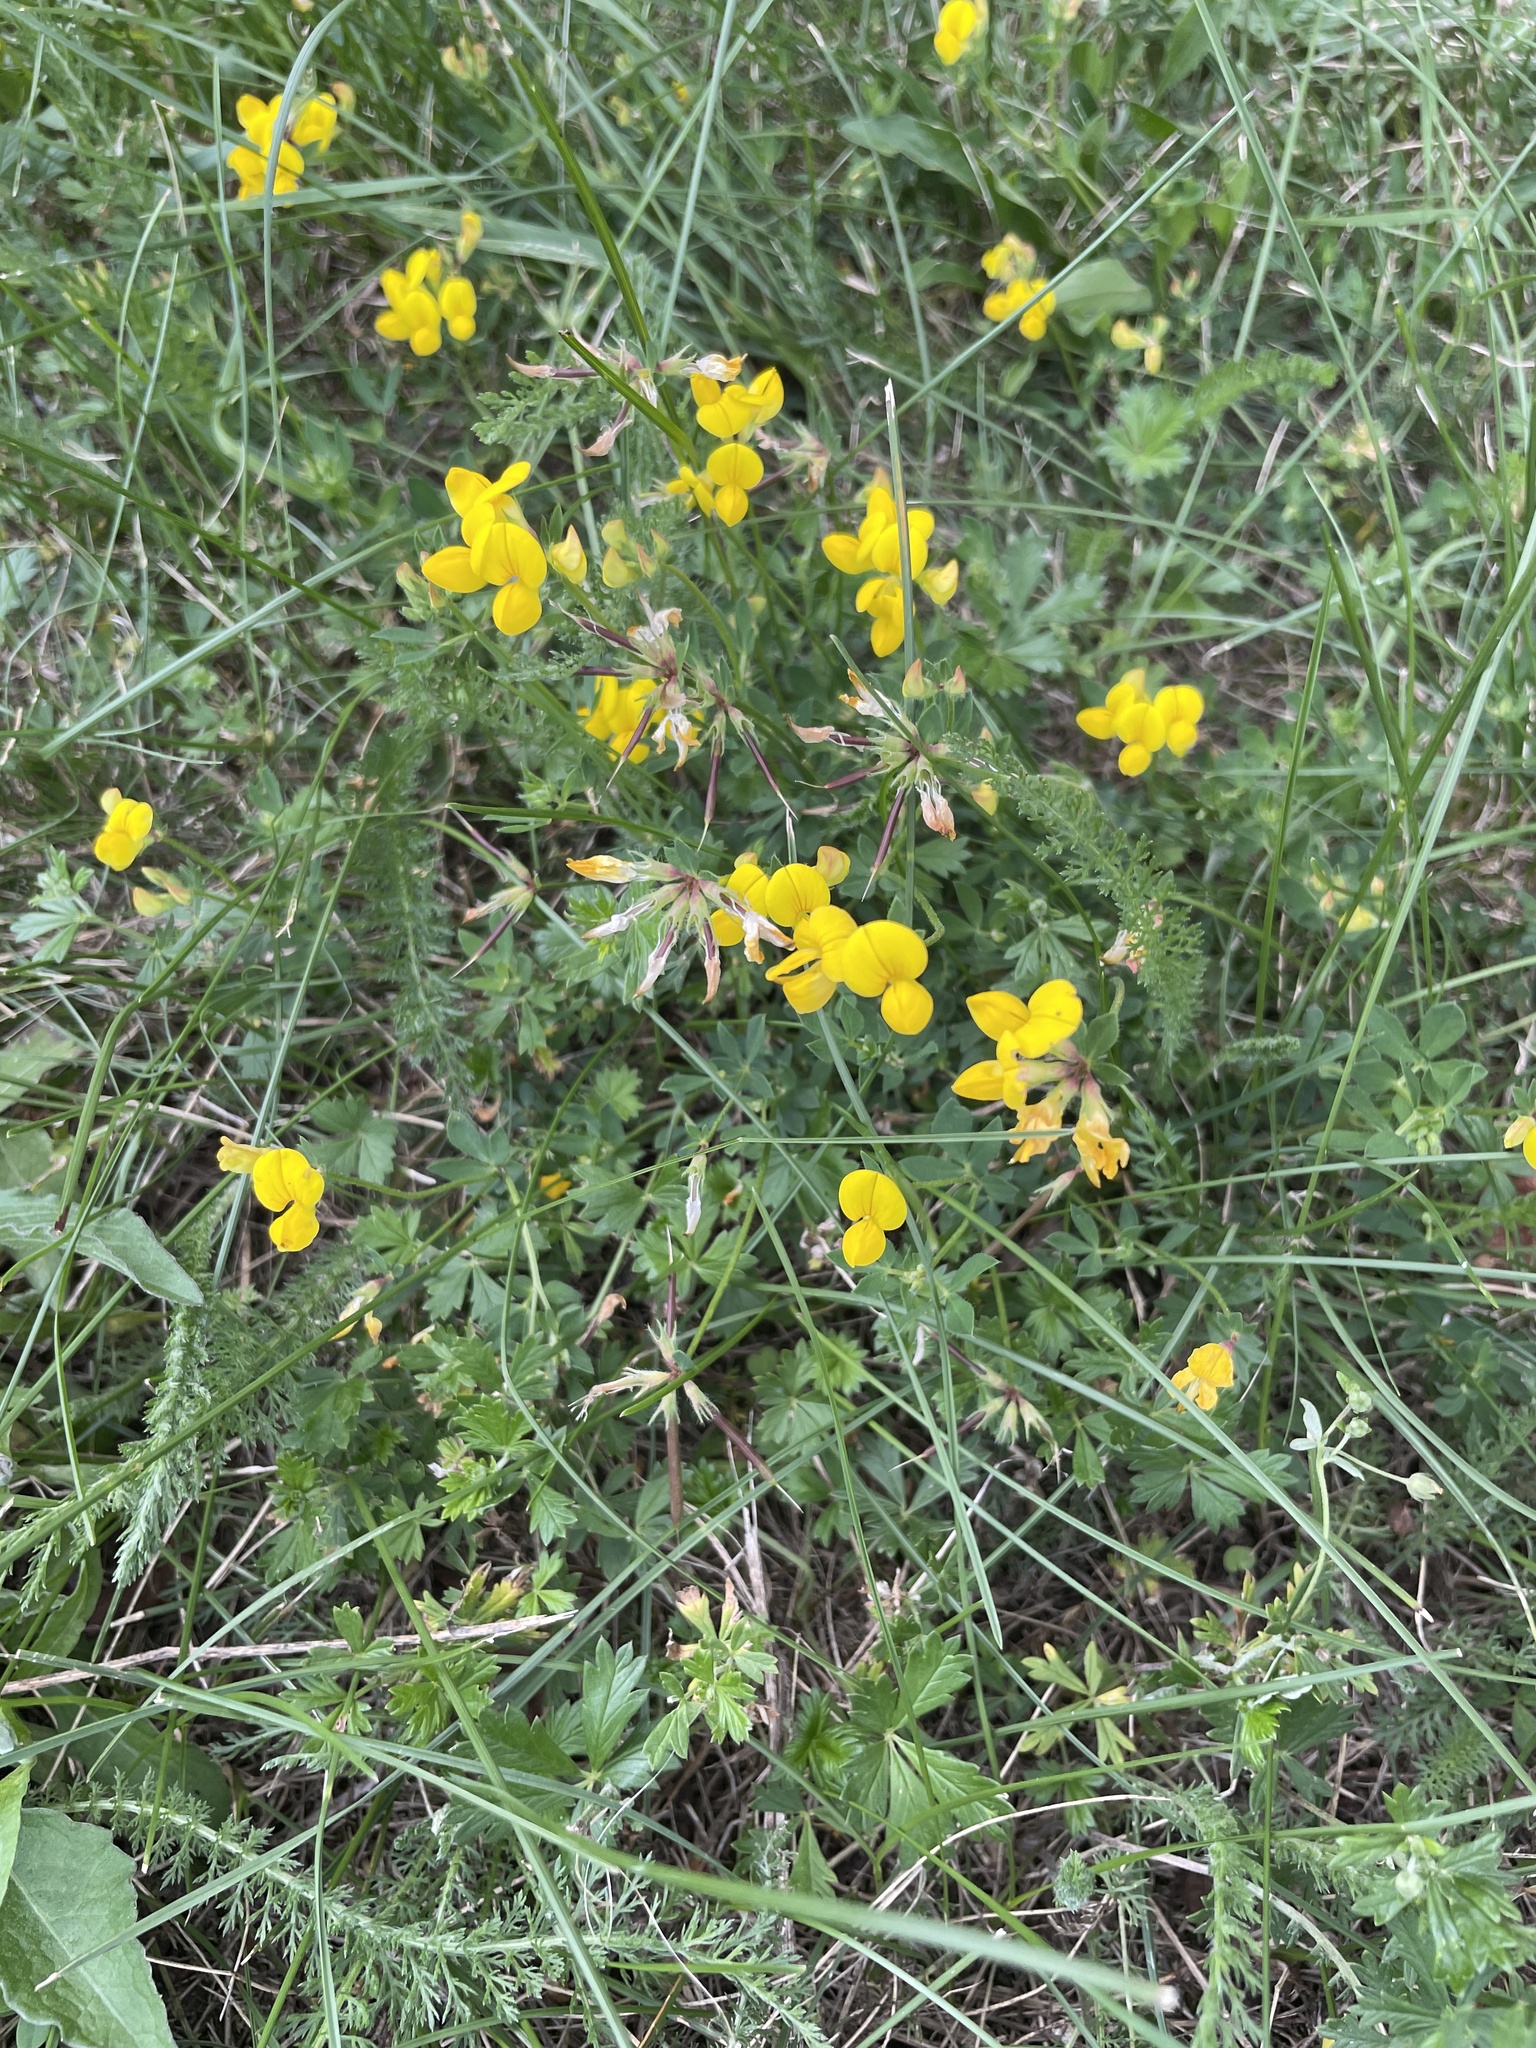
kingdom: Plantae
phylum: Tracheophyta
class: Magnoliopsida
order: Fabales
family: Fabaceae
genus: Lotus
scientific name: Lotus corniculatus
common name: Common bird's-foot-trefoil
